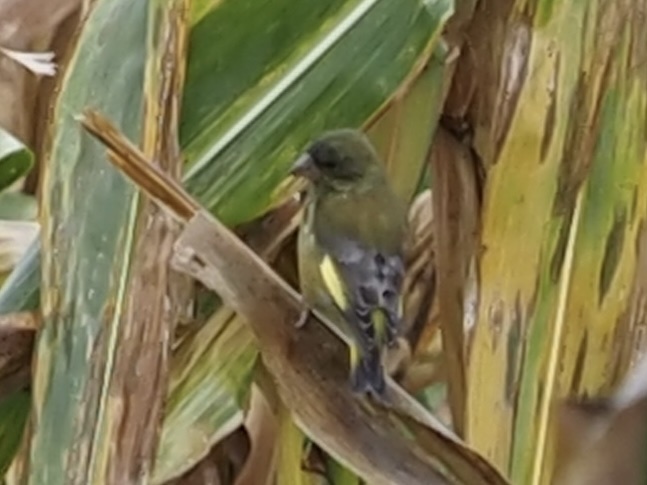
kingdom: Plantae
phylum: Tracheophyta
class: Liliopsida
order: Poales
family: Poaceae
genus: Chloris
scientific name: Chloris chloris
